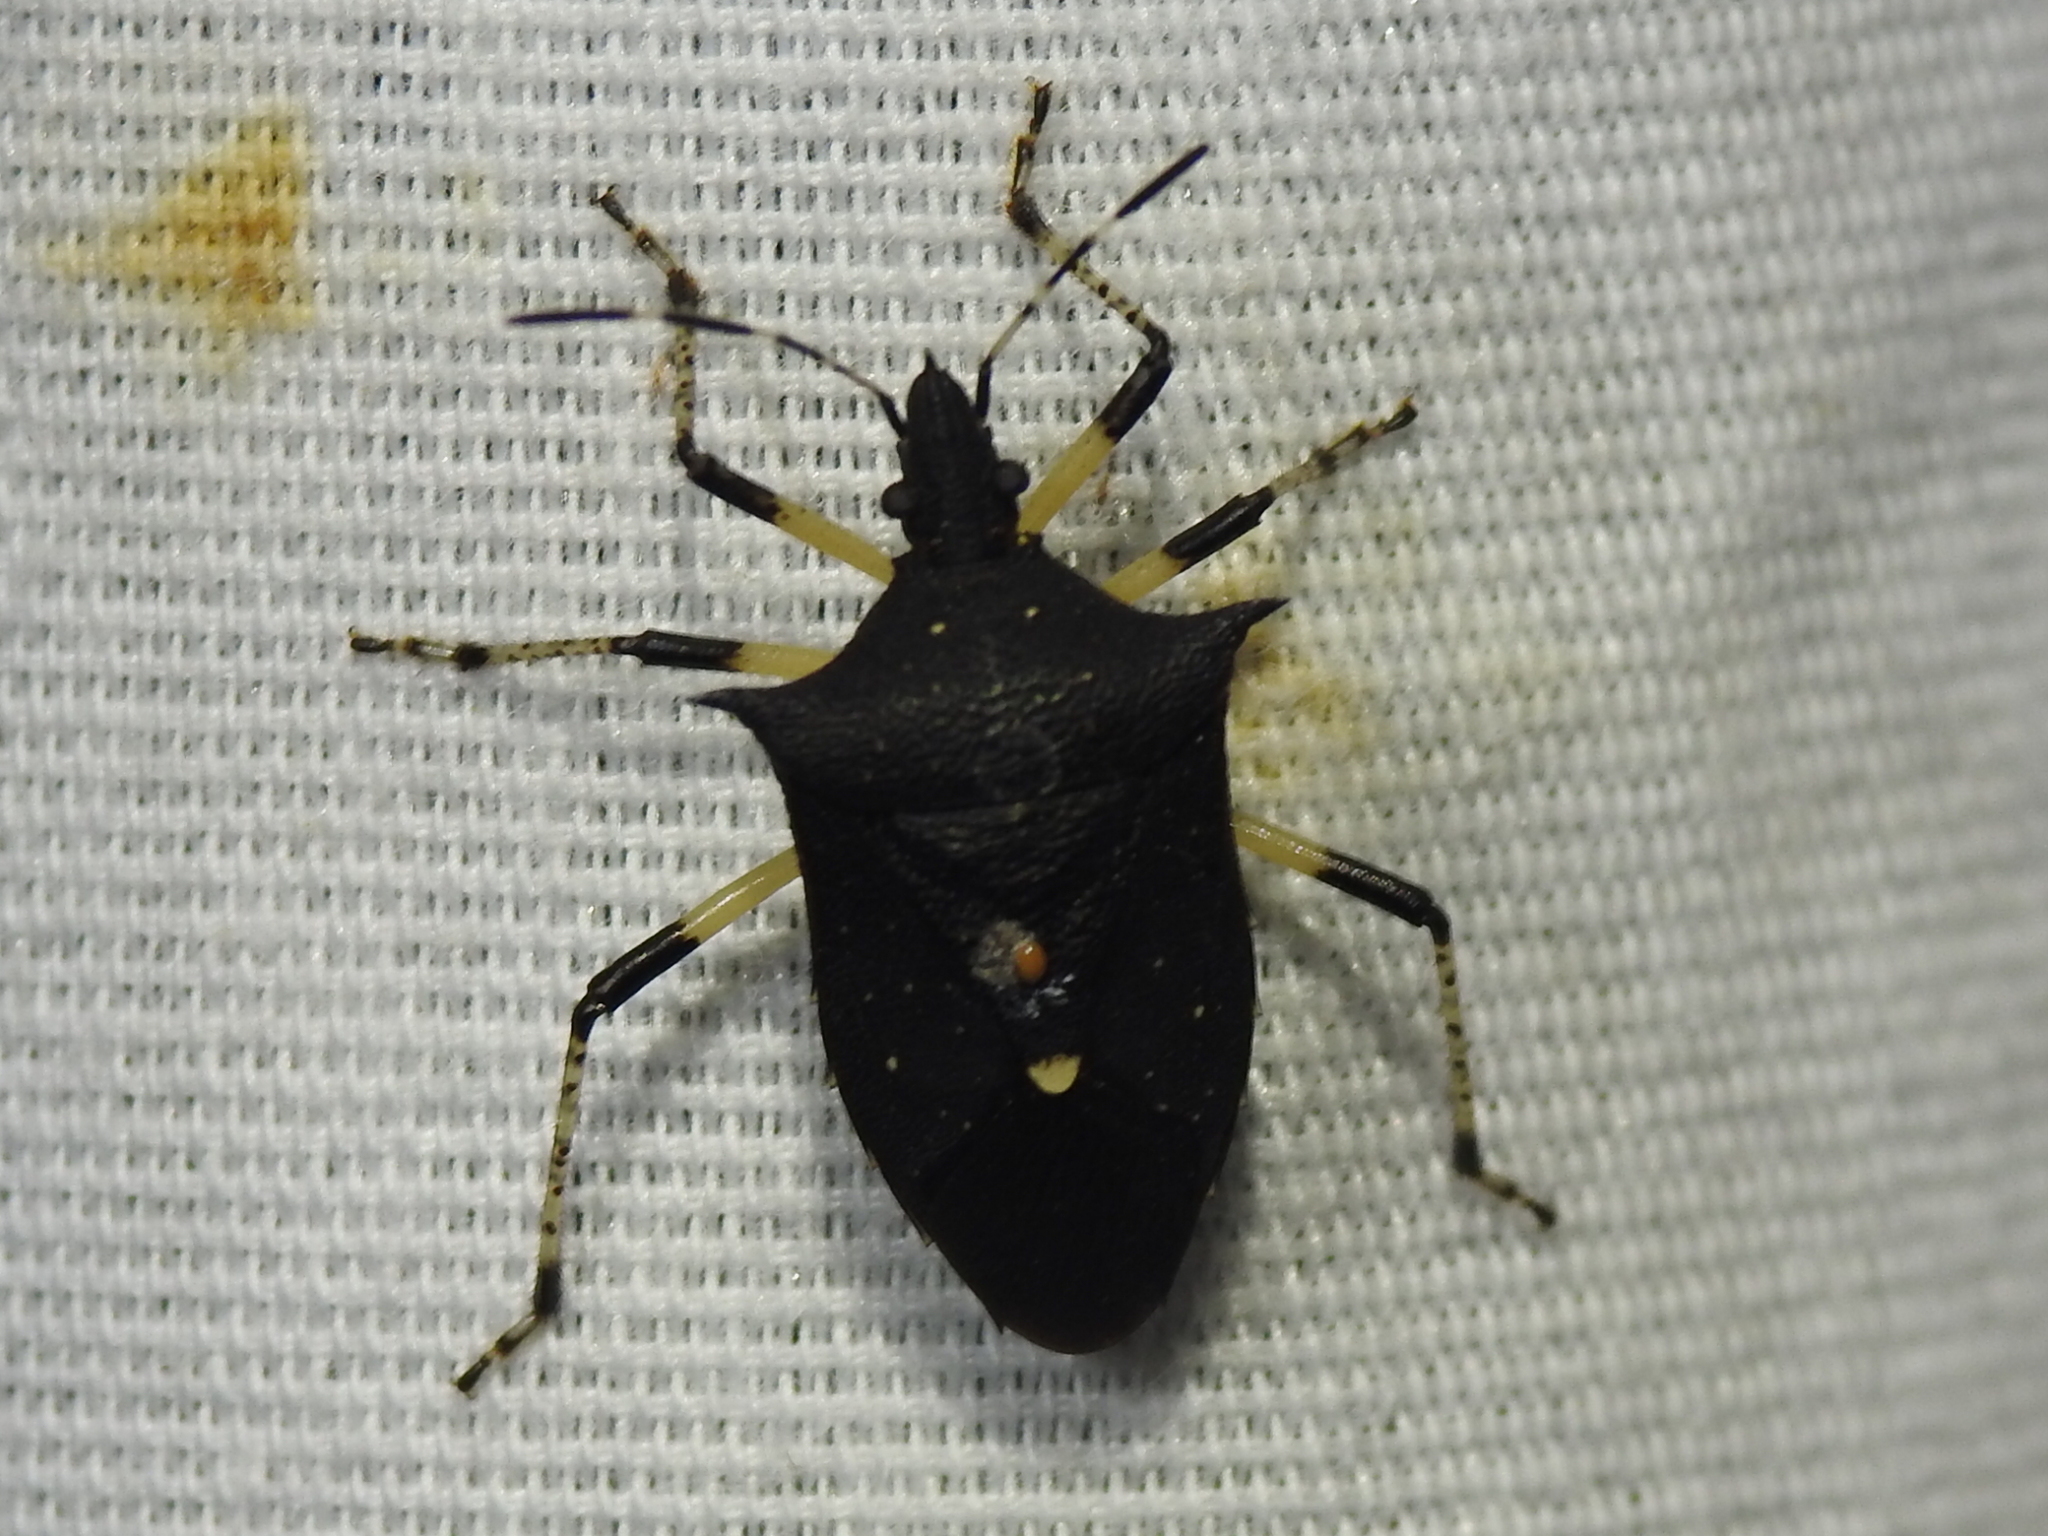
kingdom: Animalia
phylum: Arthropoda
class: Insecta
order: Hemiptera
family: Pentatomidae
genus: Proxys
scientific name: Proxys punctulatus
